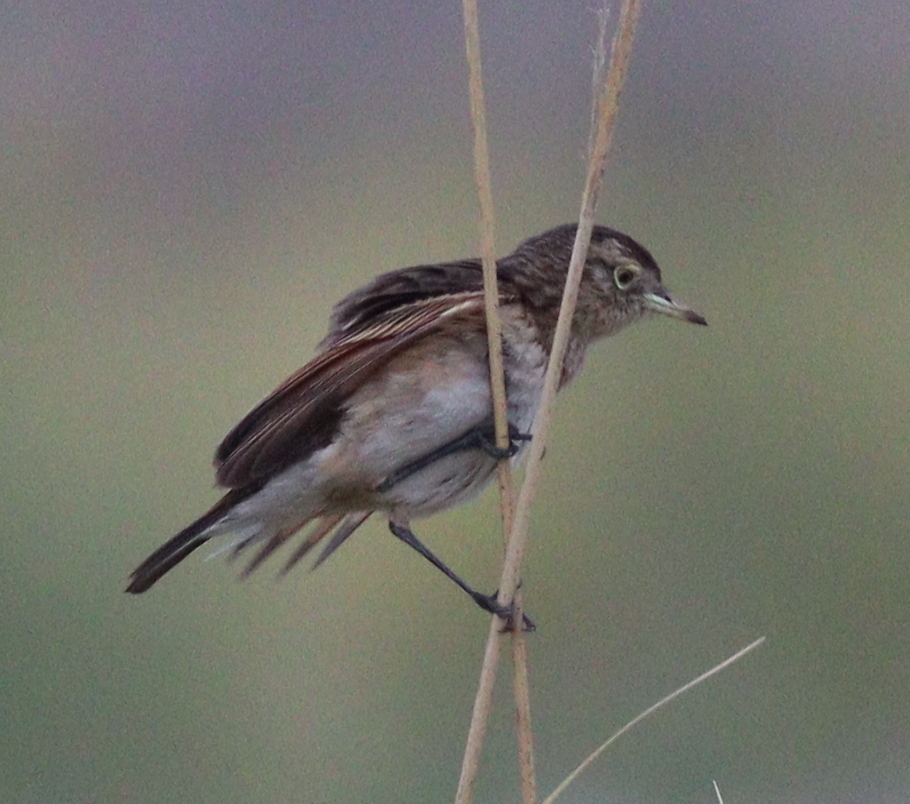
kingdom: Animalia
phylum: Chordata
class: Aves
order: Passeriformes
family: Tyrannidae
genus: Hymenops
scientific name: Hymenops perspicillatus
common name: Spectacled tyrant
